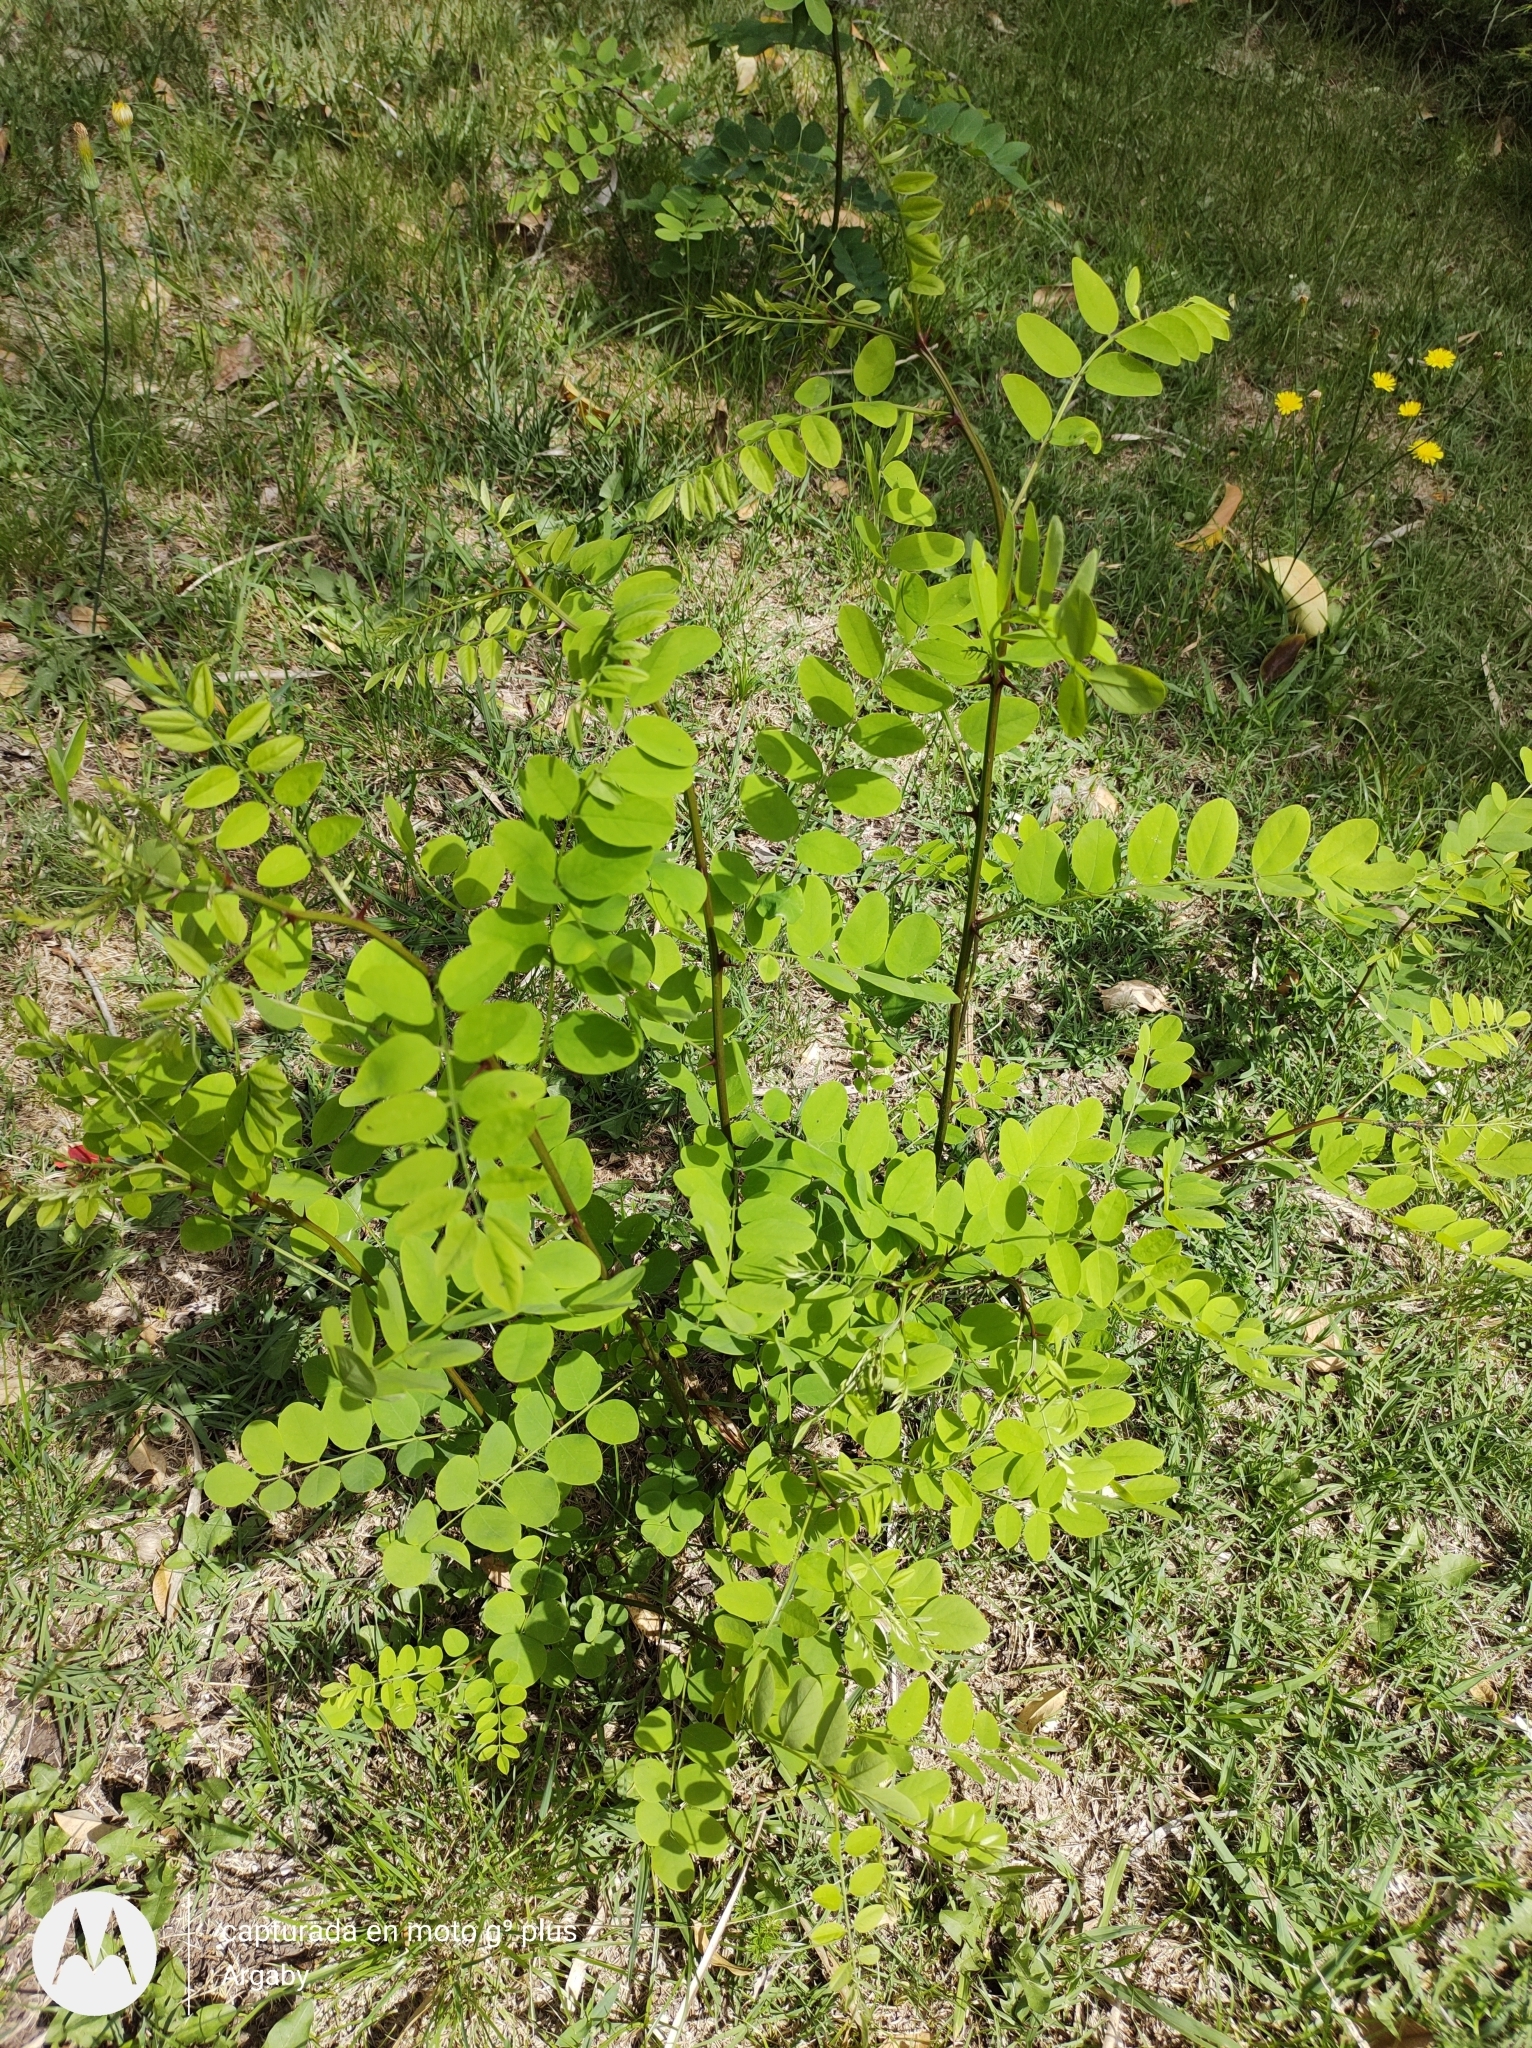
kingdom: Plantae
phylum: Tracheophyta
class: Magnoliopsida
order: Fabales
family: Fabaceae
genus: Robinia
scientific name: Robinia pseudoacacia
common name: Black locust
